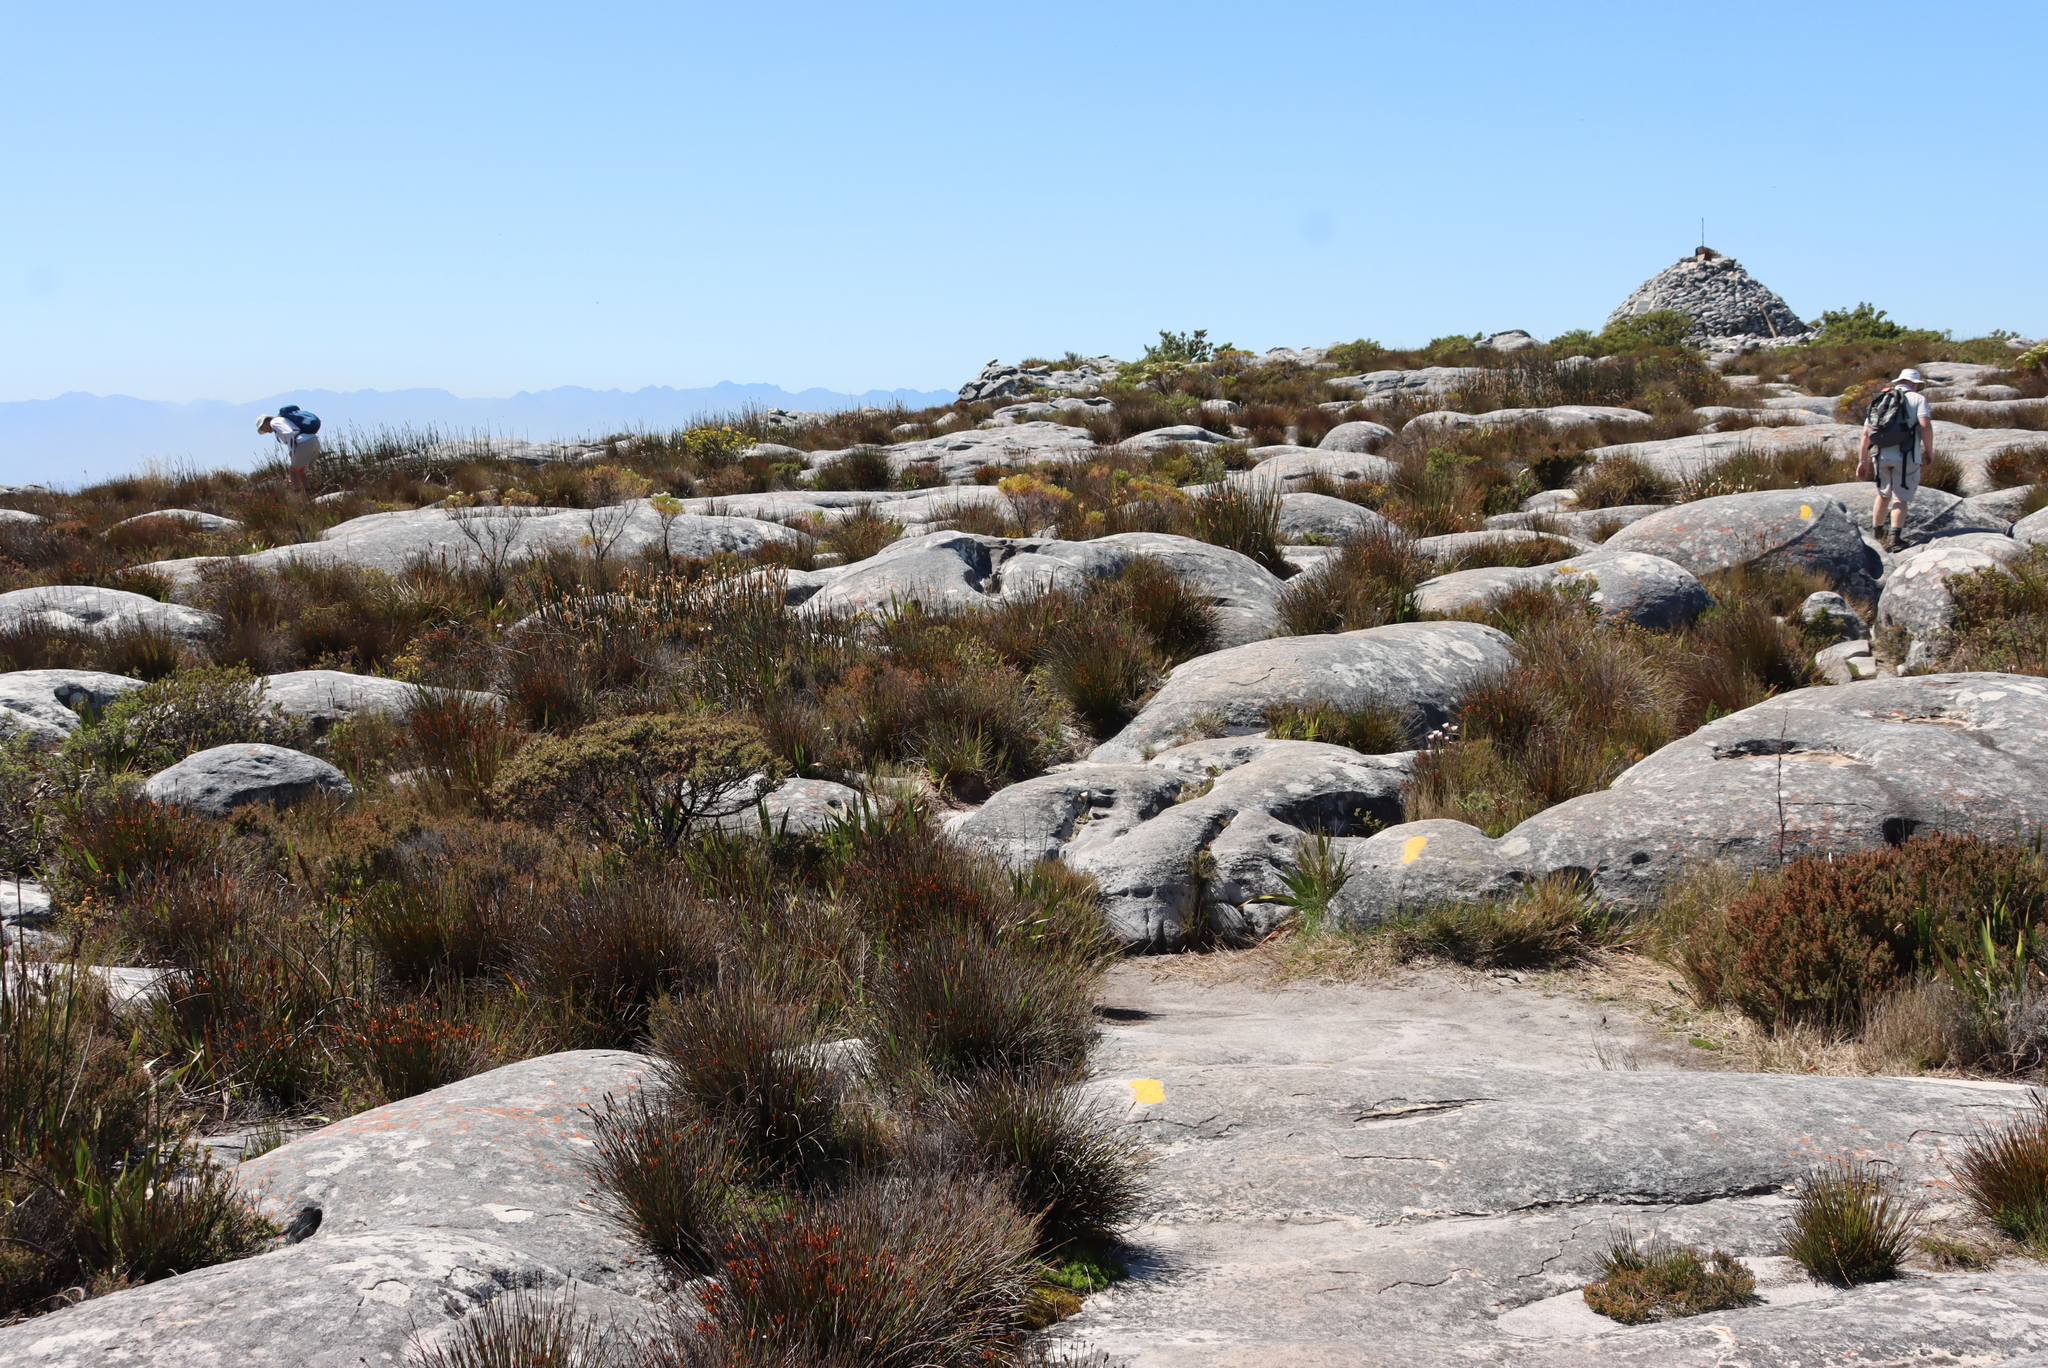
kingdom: Plantae
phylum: Tracheophyta
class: Magnoliopsida
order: Ericales
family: Ericaceae
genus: Erica
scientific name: Erica hispidula
